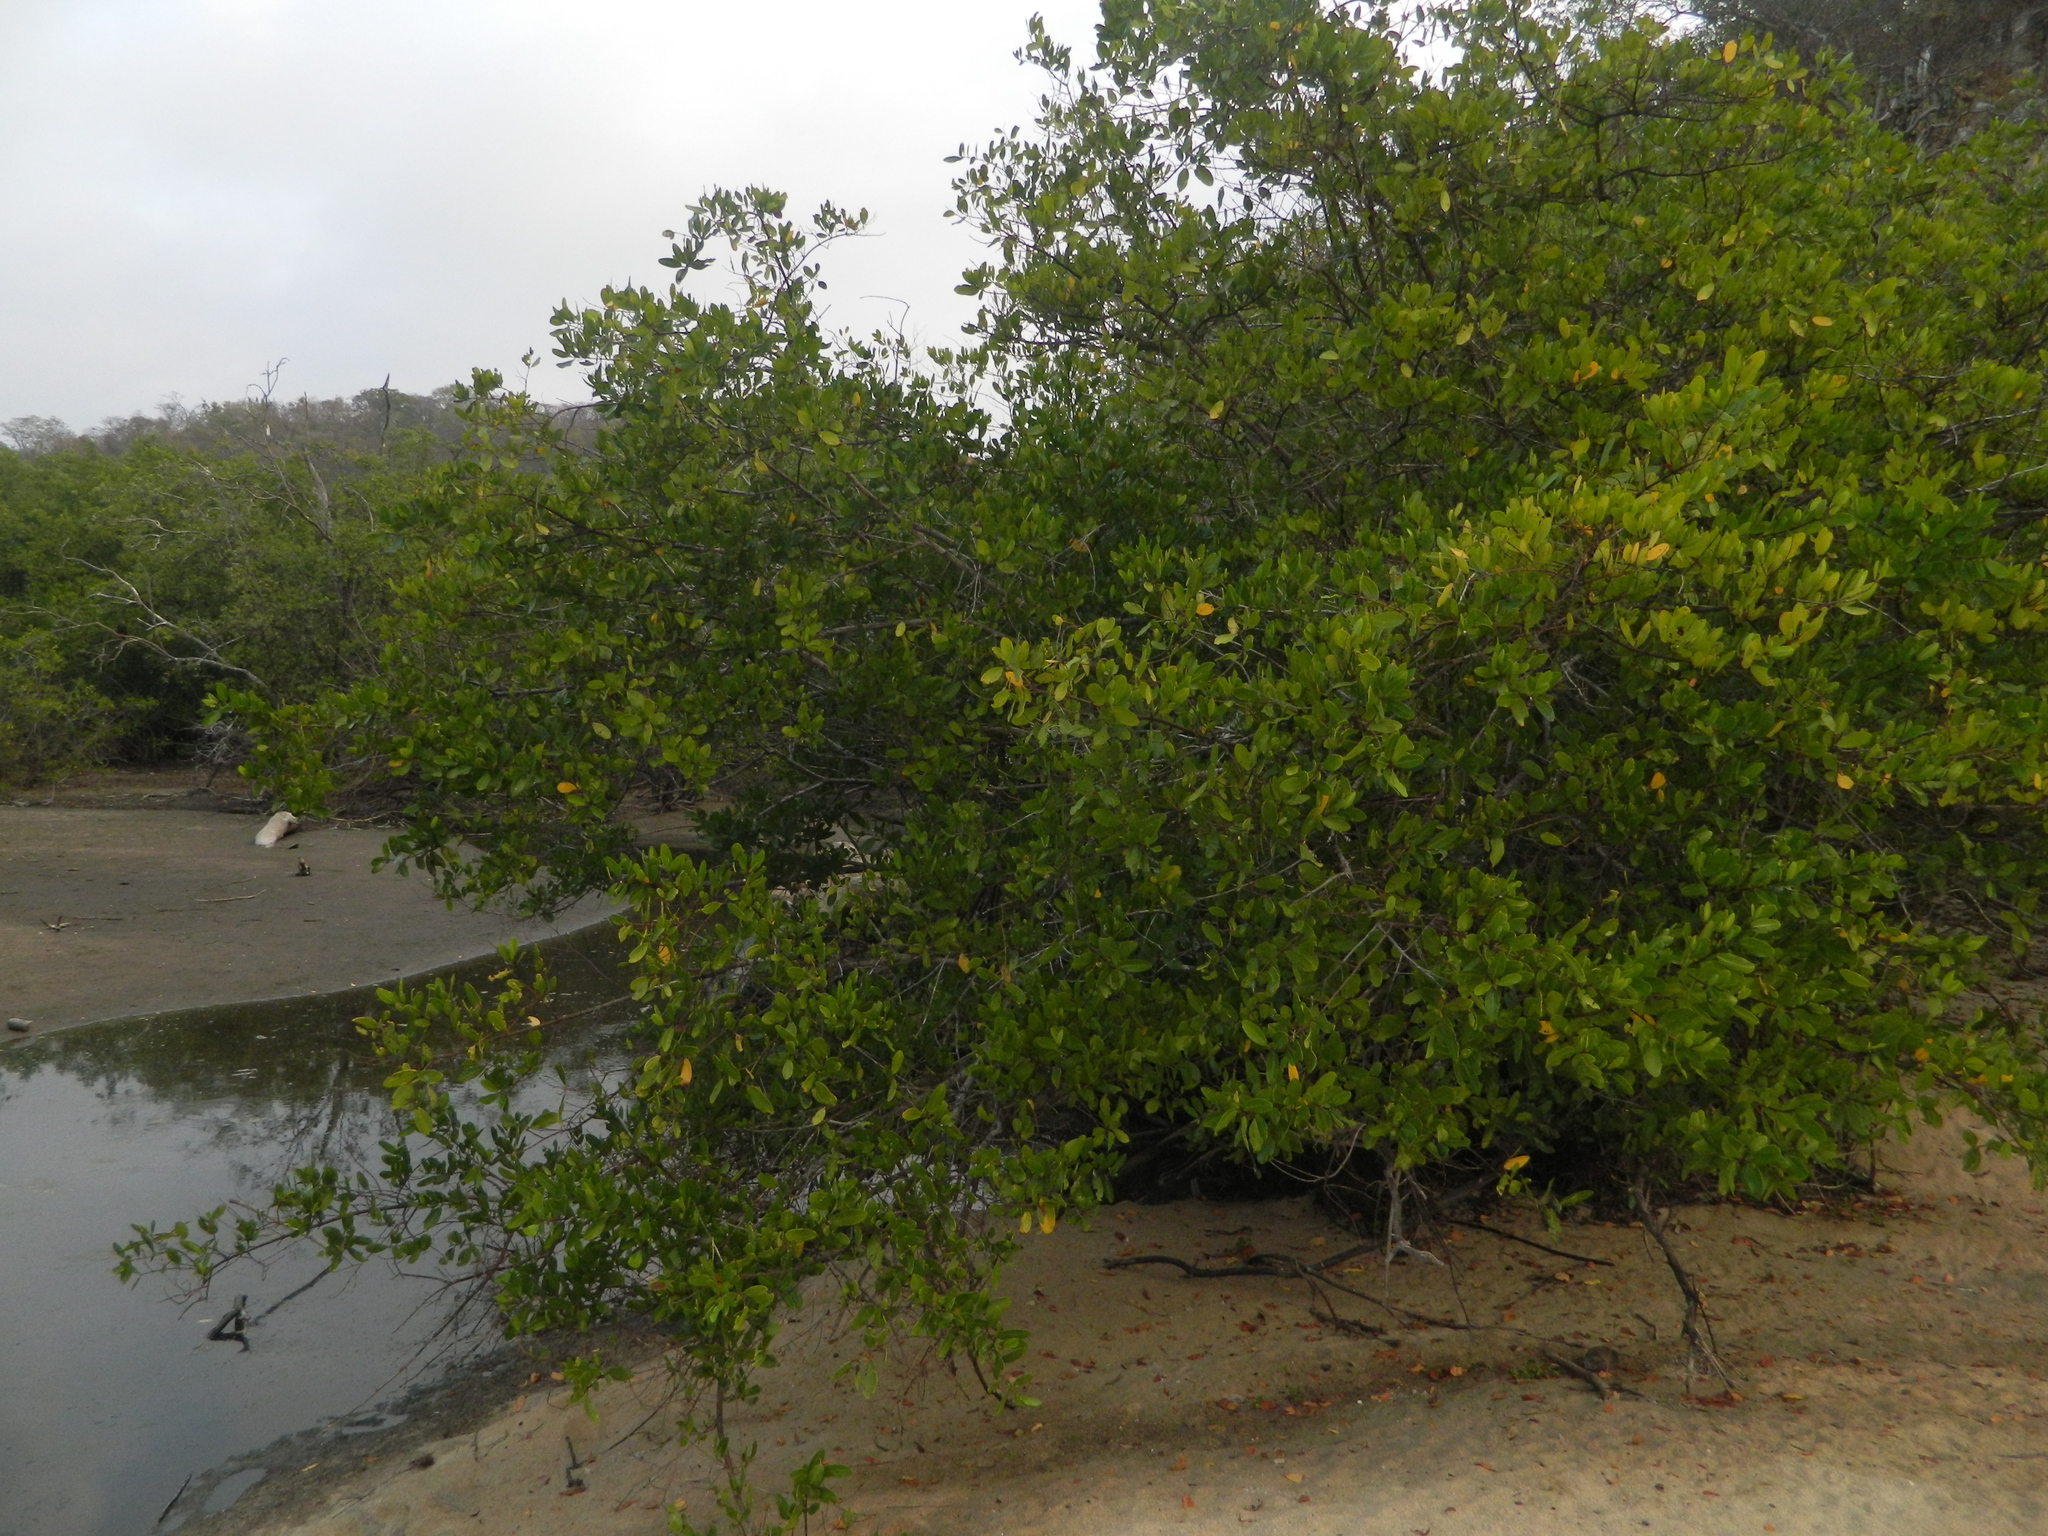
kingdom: Plantae
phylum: Tracheophyta
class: Magnoliopsida
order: Myrtales
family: Combretaceae
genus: Laguncularia
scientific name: Laguncularia racemosa
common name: White mangrove
